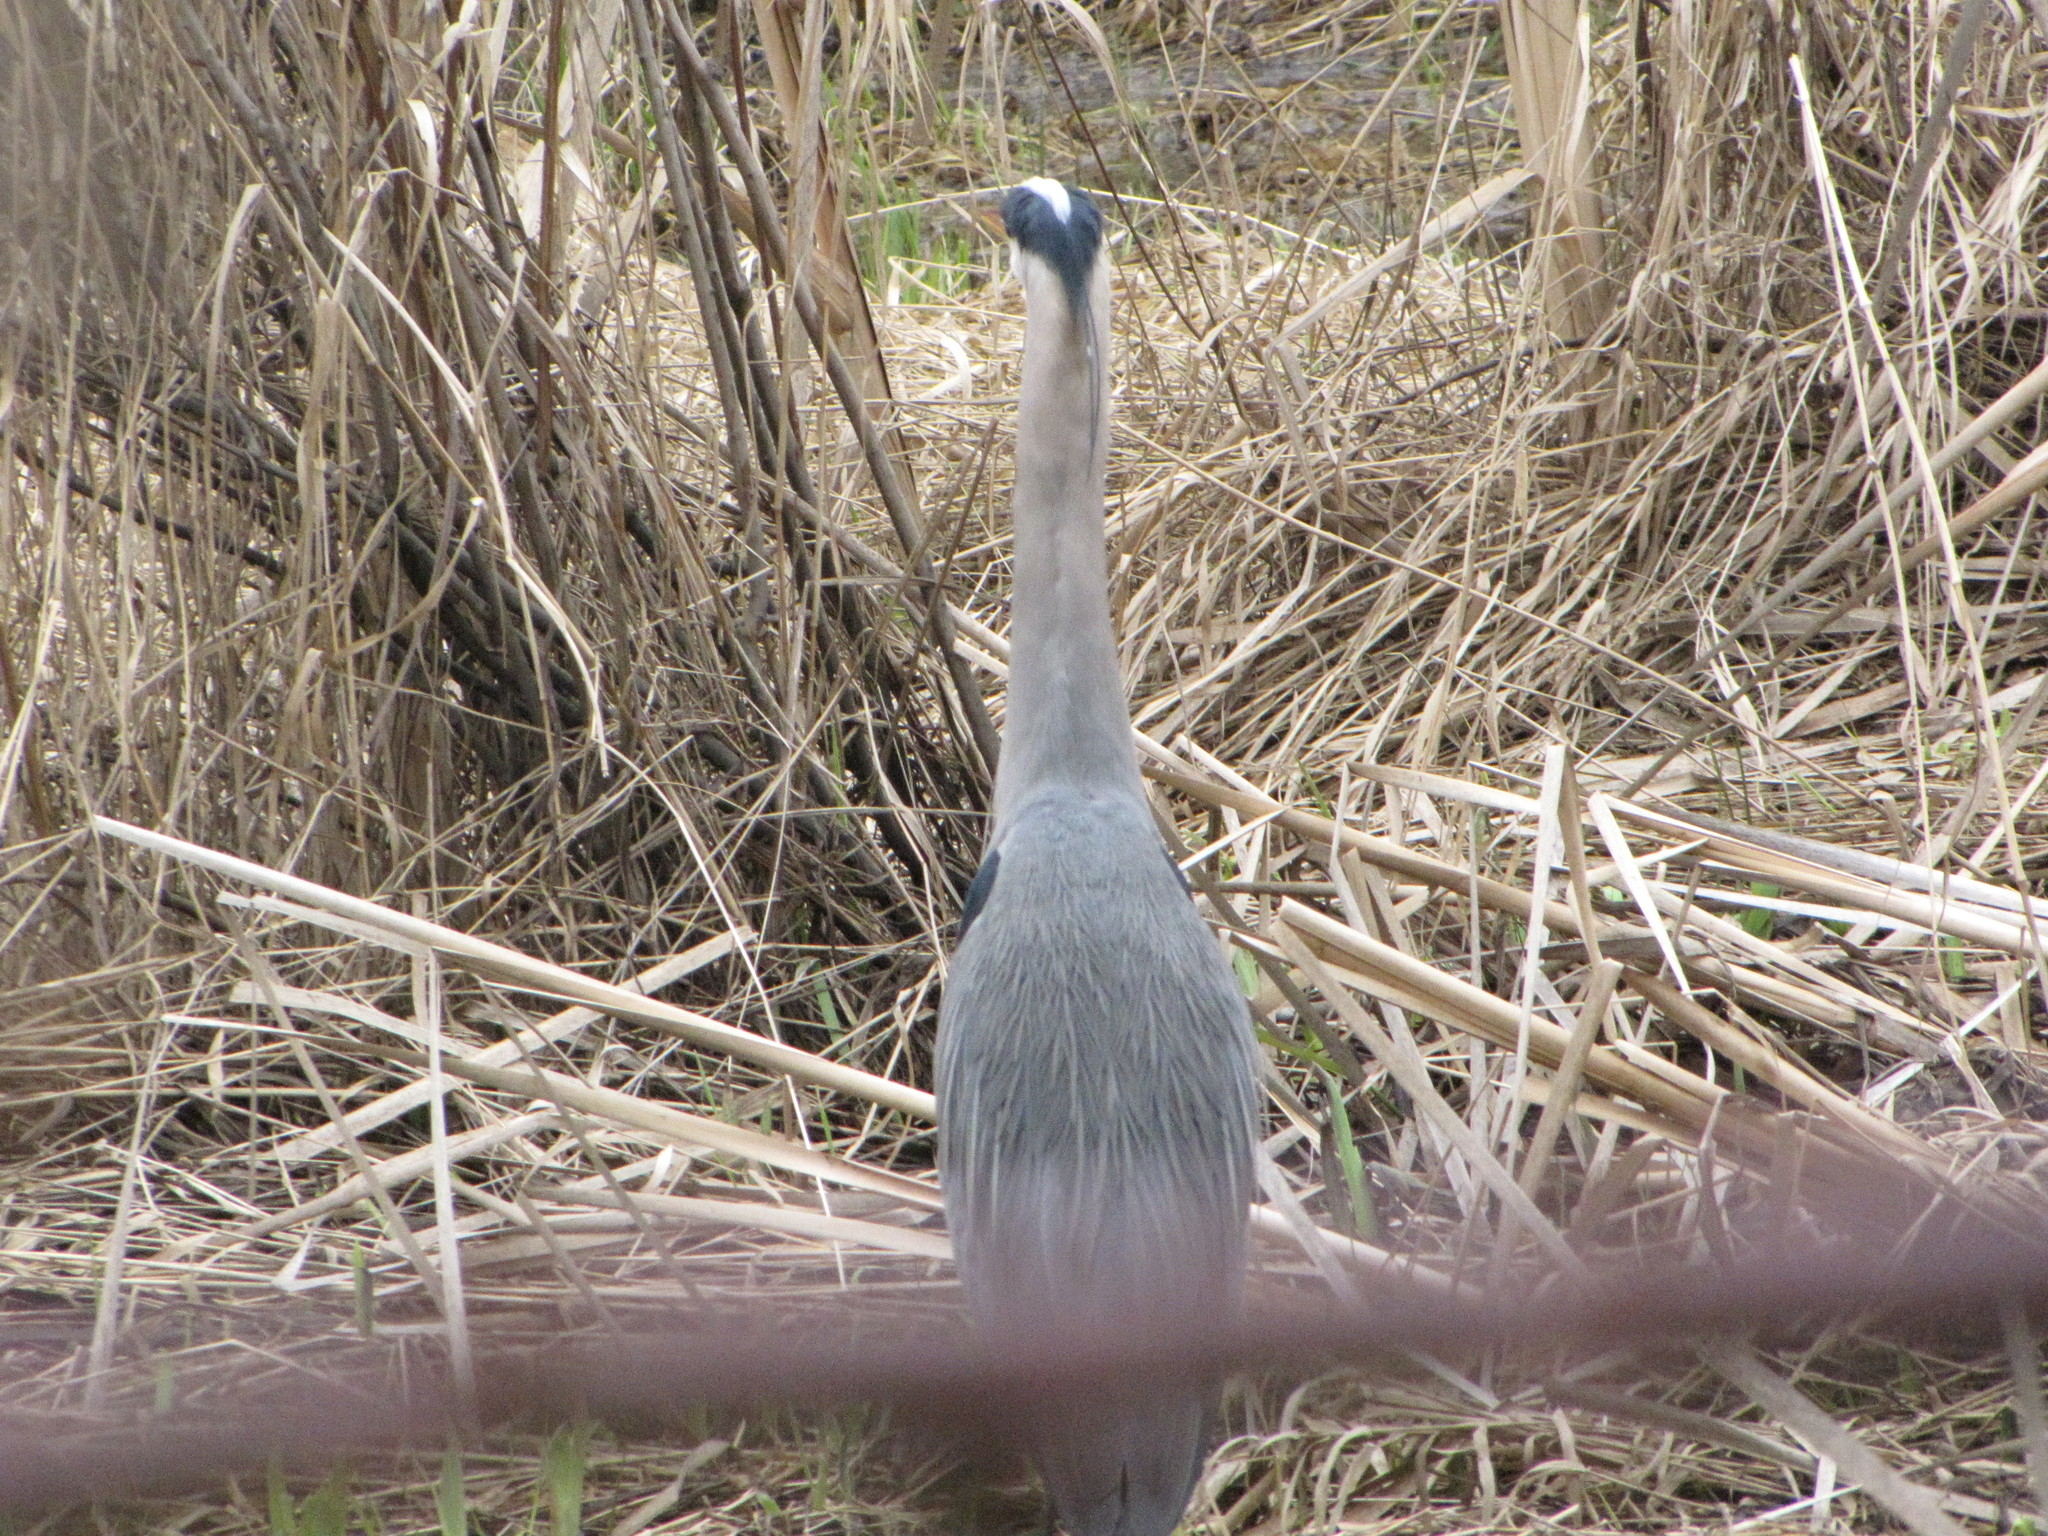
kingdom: Animalia
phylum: Chordata
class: Aves
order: Pelecaniformes
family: Ardeidae
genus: Ardea
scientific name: Ardea herodias
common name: Great blue heron
